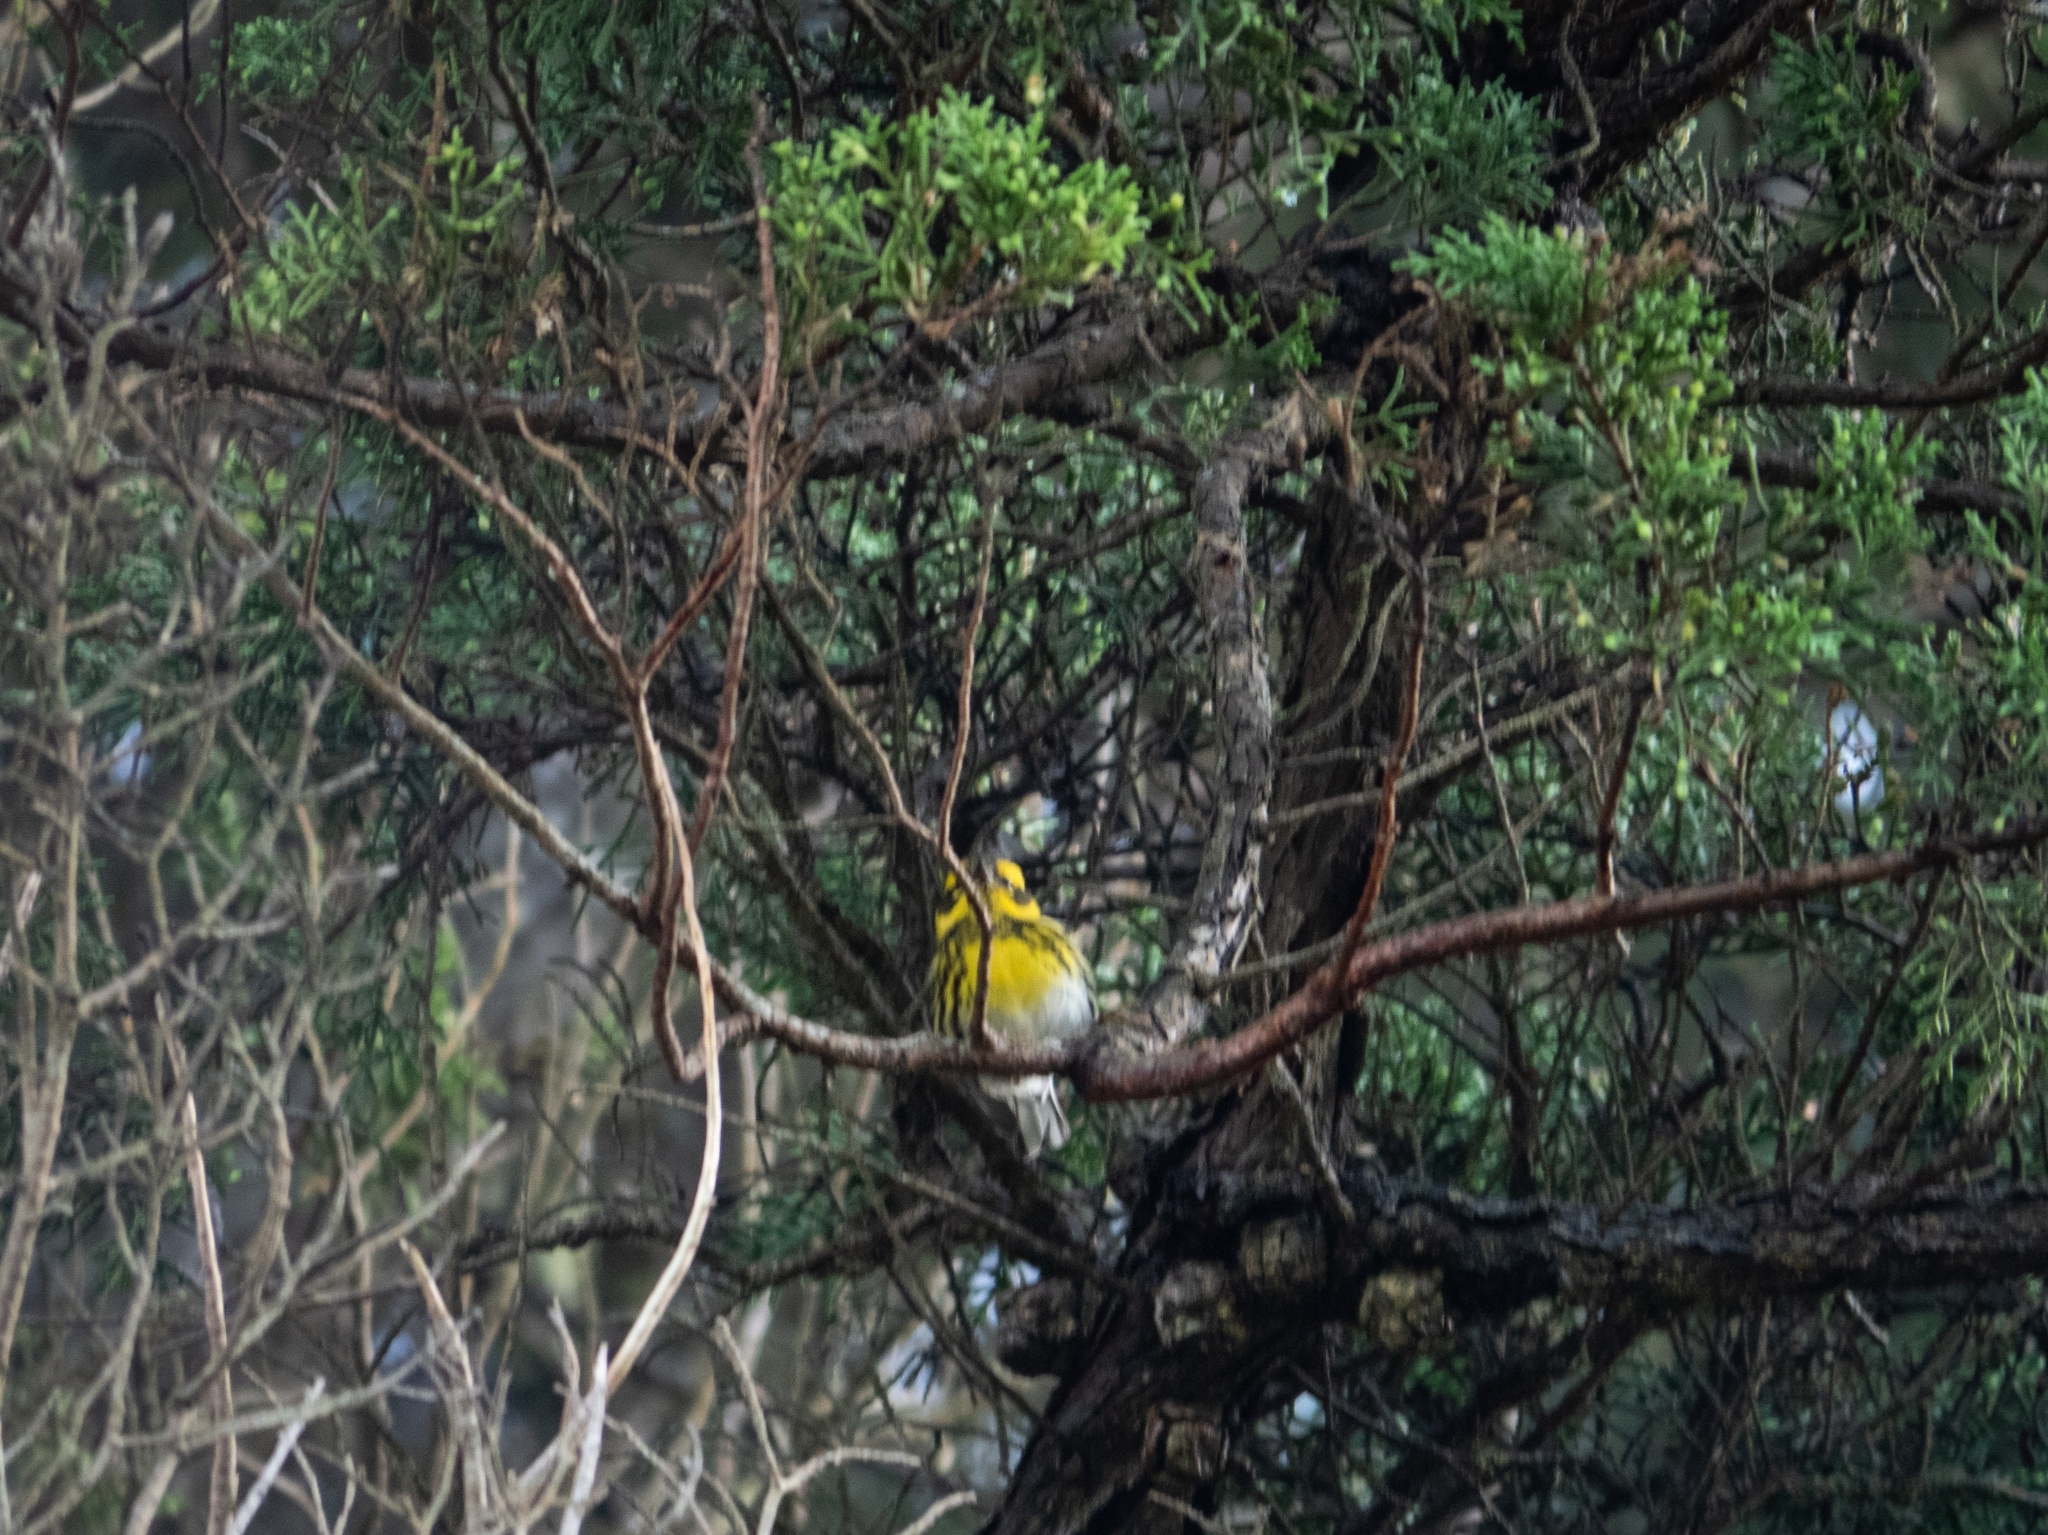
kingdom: Animalia
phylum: Chordata
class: Aves
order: Passeriformes
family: Parulidae
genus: Setophaga
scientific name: Setophaga townsendi
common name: Townsend's warbler
